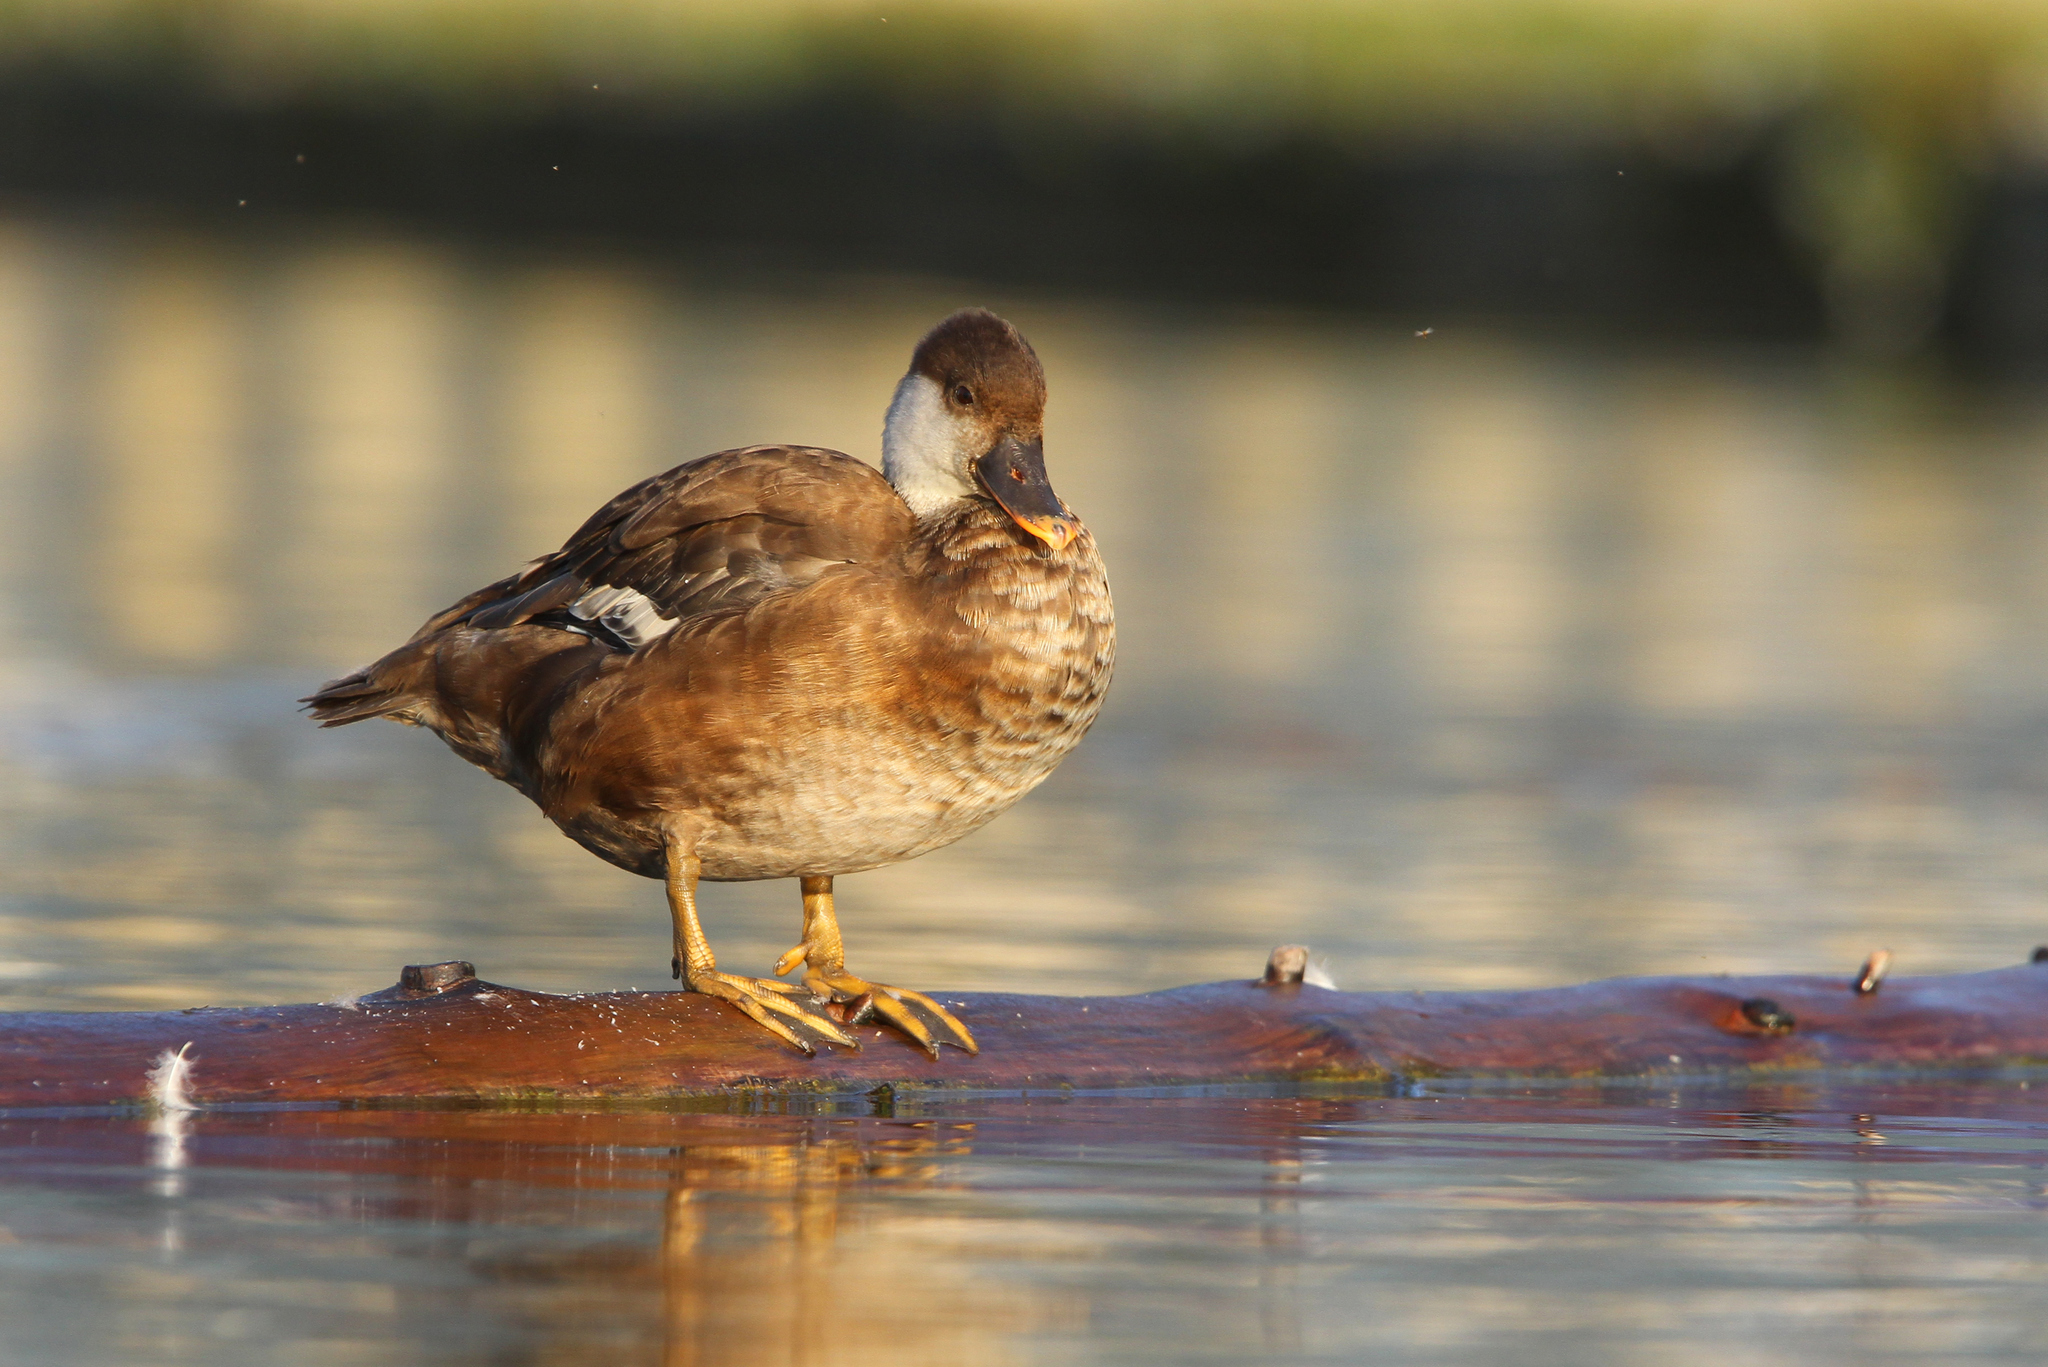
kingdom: Animalia
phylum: Chordata
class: Aves
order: Anseriformes
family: Anatidae
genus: Netta
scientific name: Netta rufina
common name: Red-crested pochard
